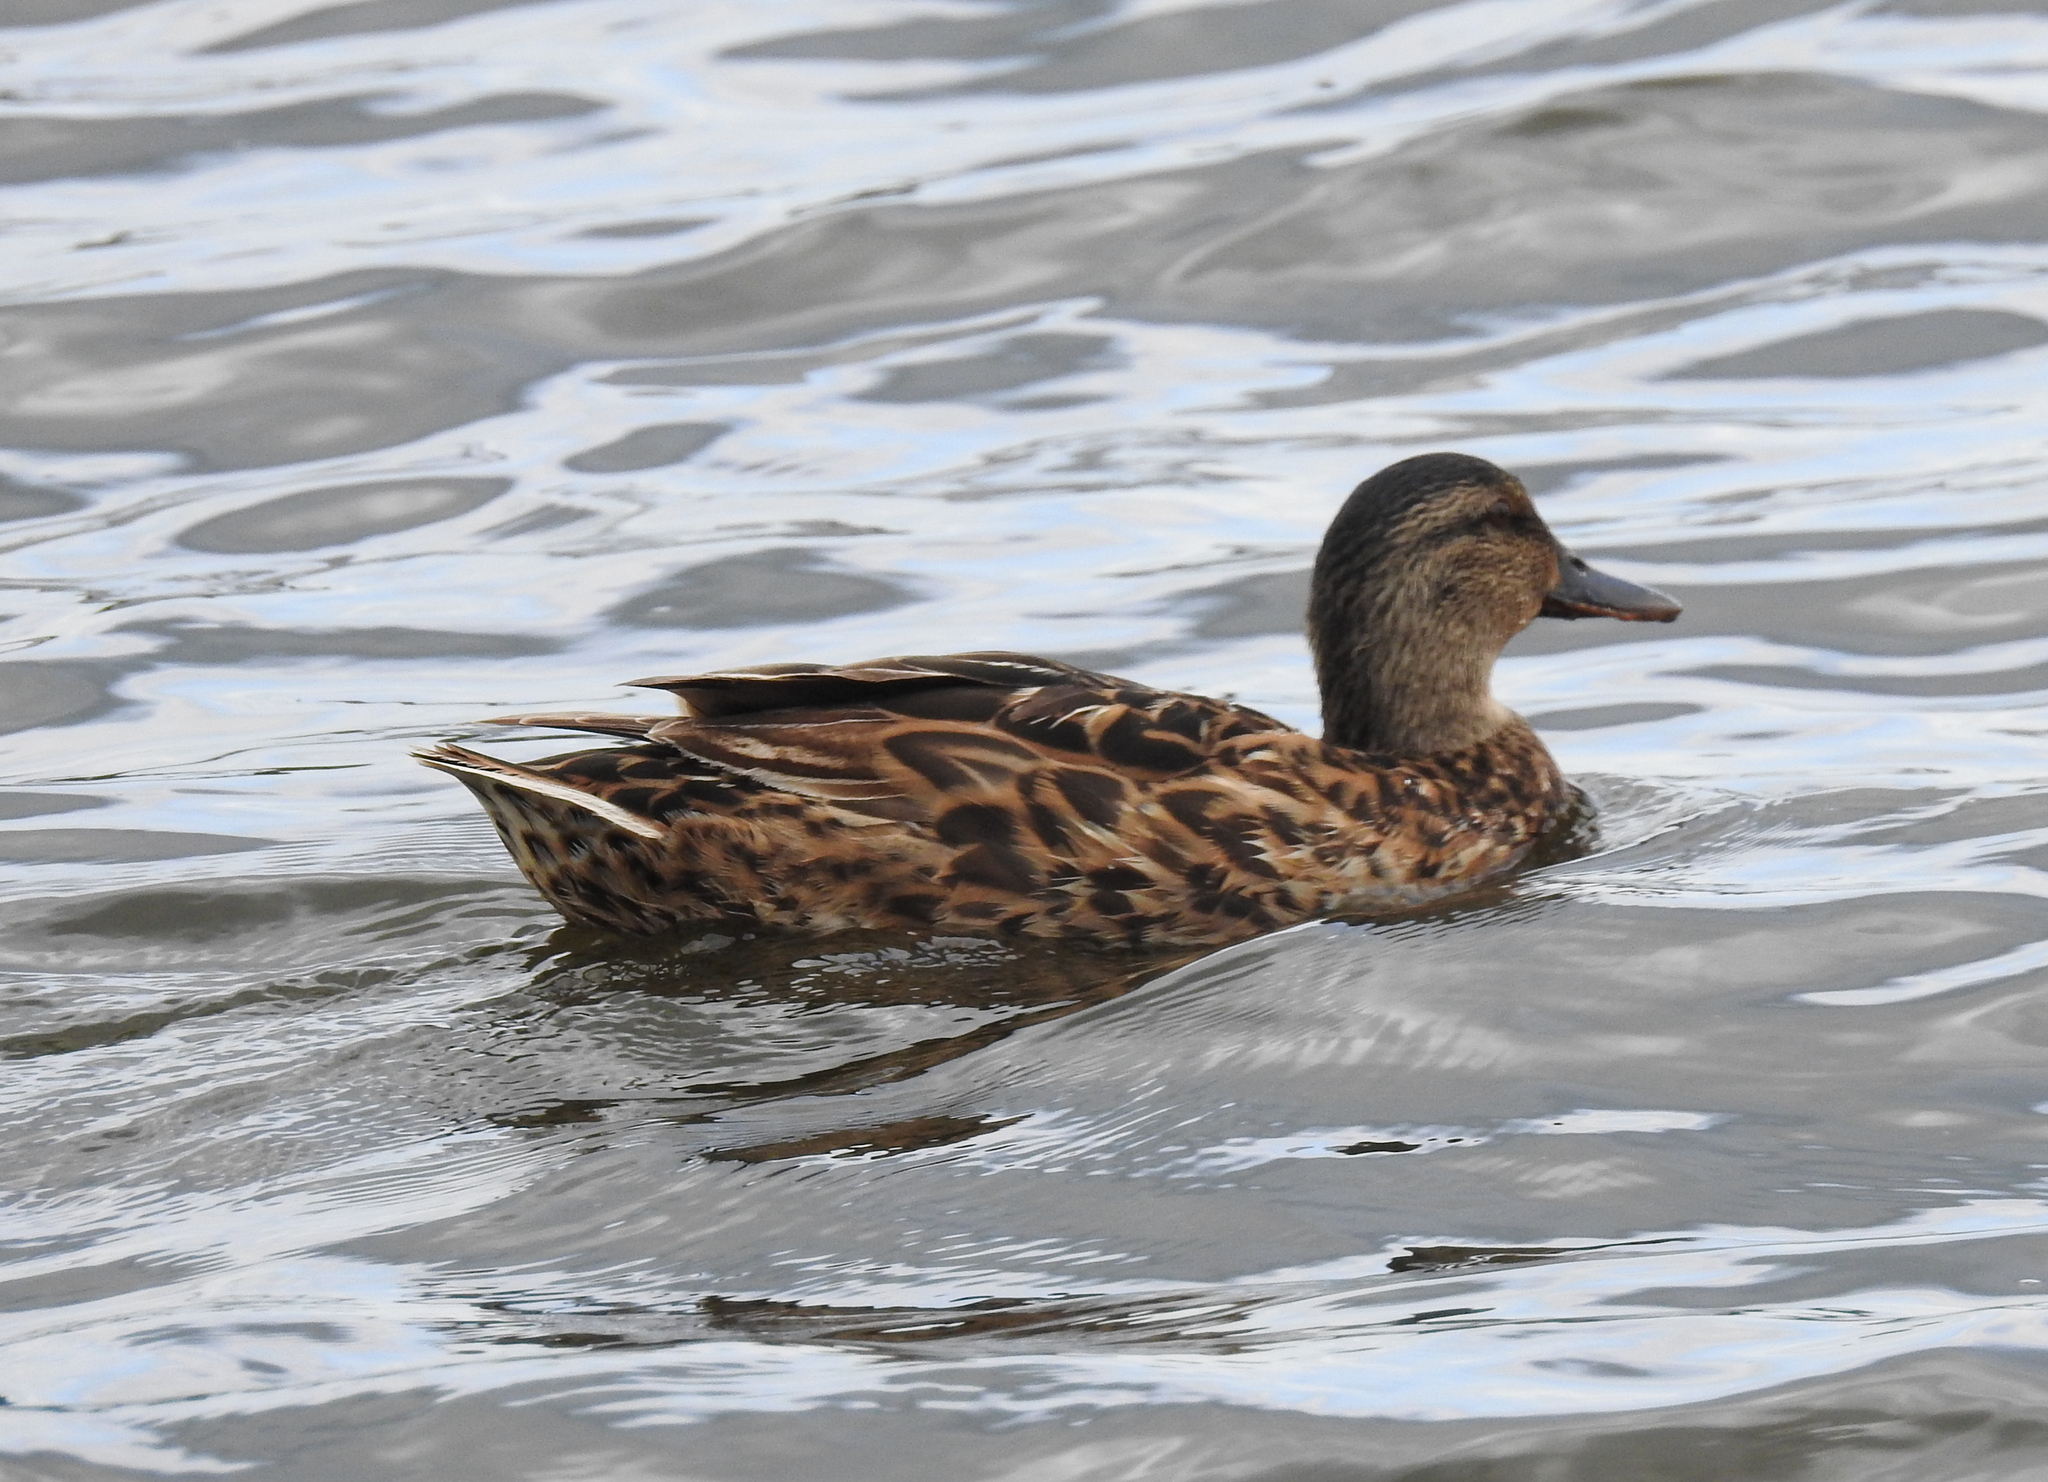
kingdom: Animalia
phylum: Chordata
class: Aves
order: Anseriformes
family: Anatidae
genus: Anas
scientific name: Anas platyrhynchos
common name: Mallard
